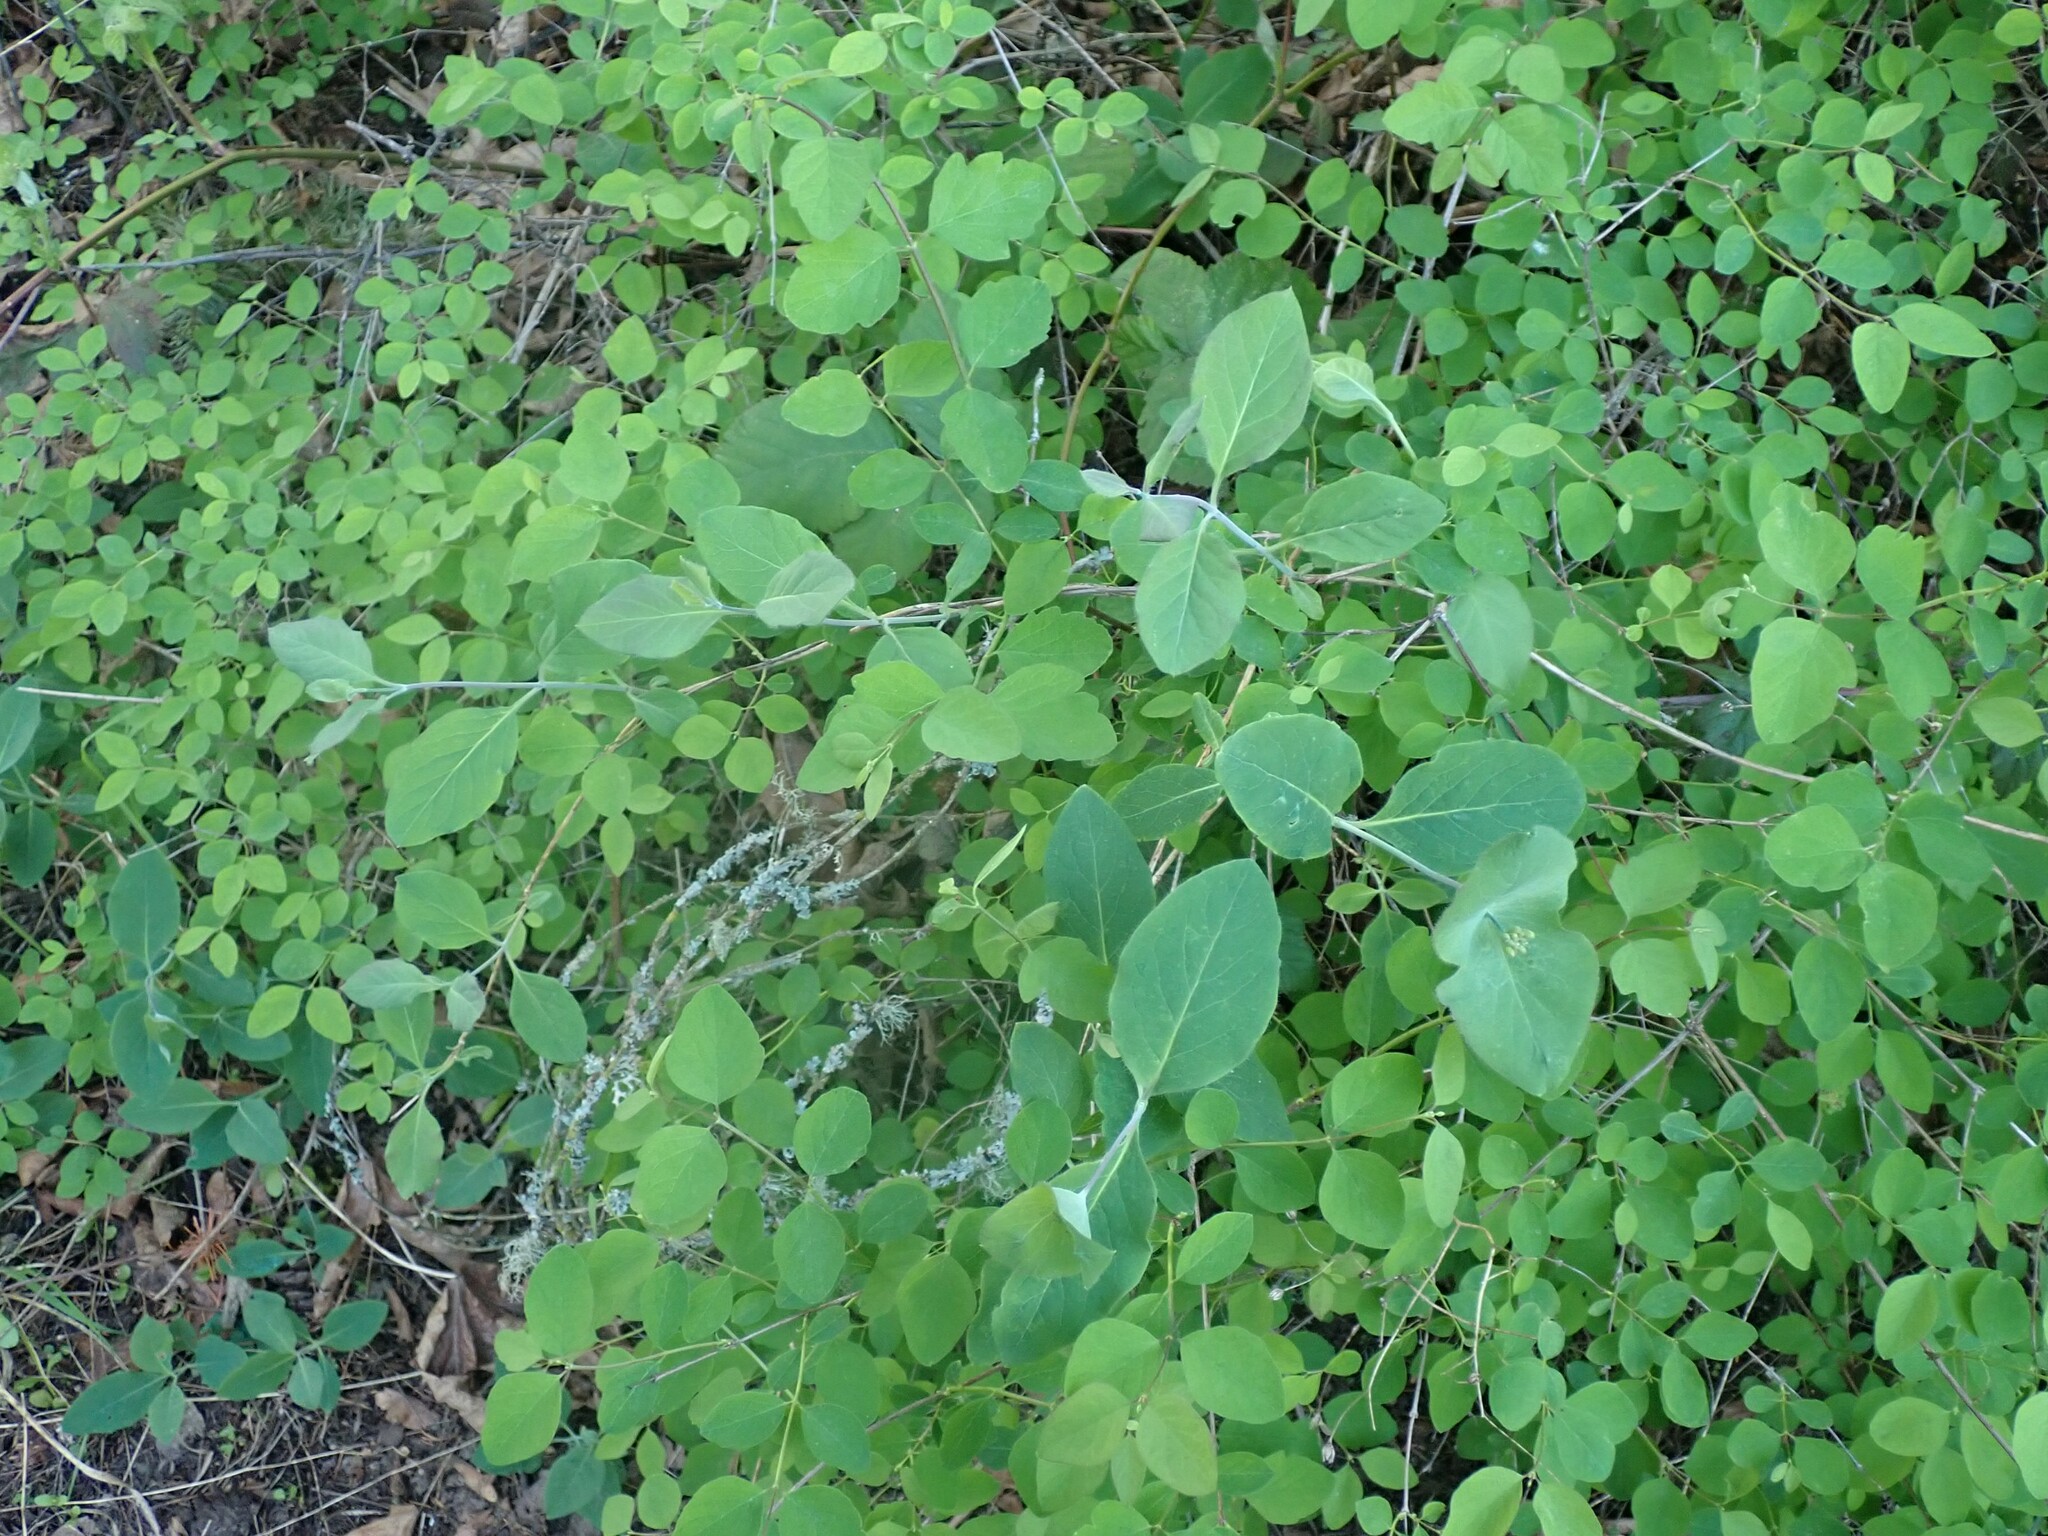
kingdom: Plantae
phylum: Tracheophyta
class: Magnoliopsida
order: Dipsacales
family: Caprifoliaceae
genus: Lonicera
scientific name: Lonicera ciliosa
